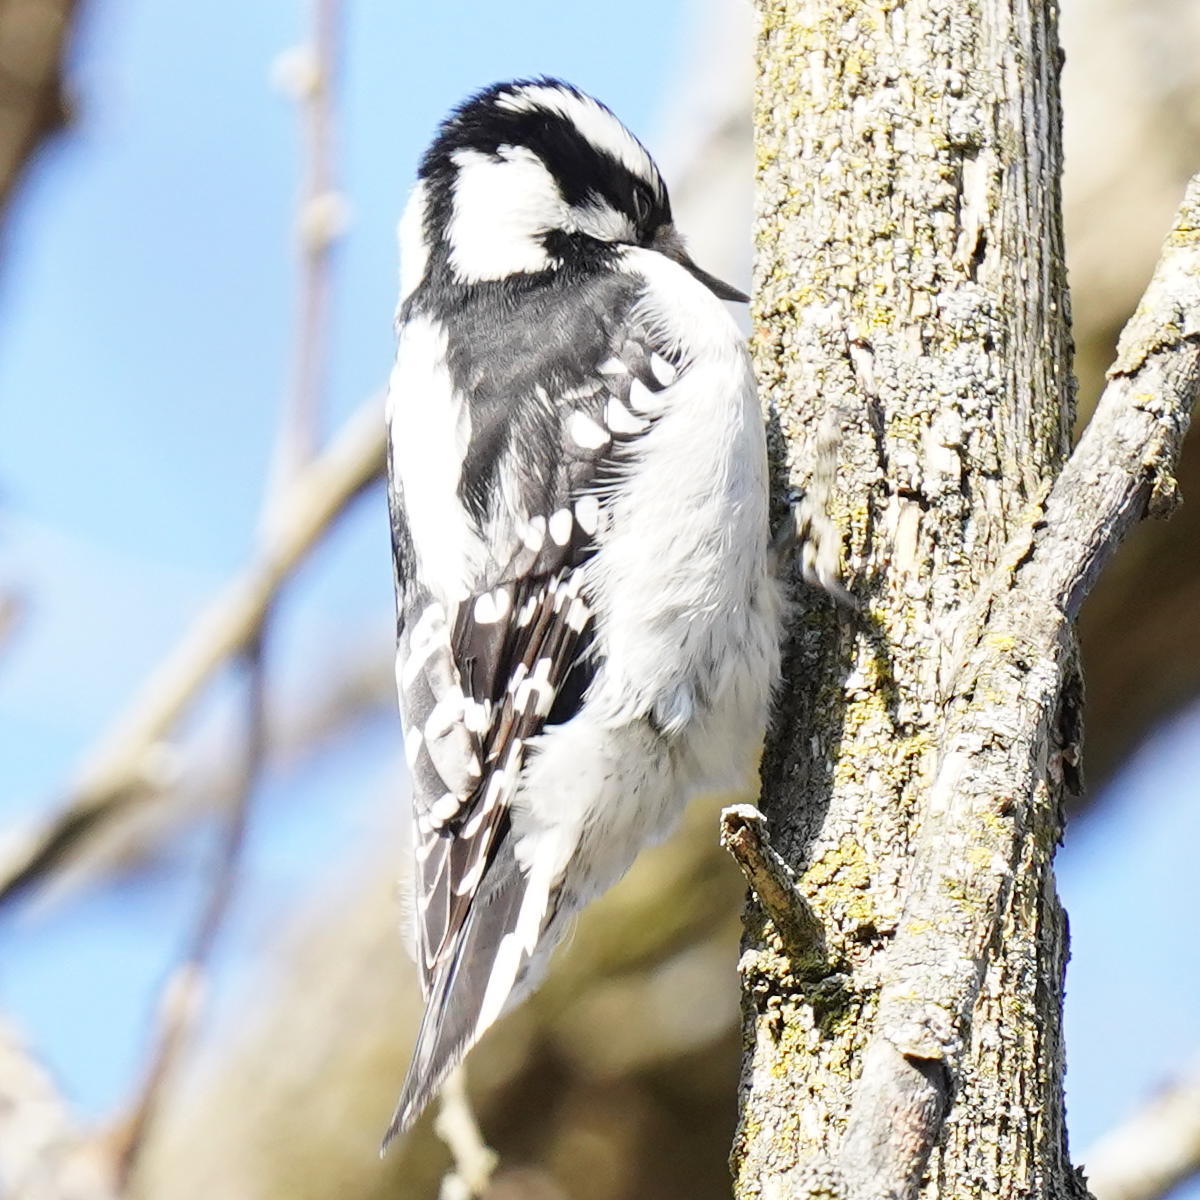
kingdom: Animalia
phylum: Chordata
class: Aves
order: Piciformes
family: Picidae
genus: Dryobates
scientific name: Dryobates pubescens
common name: Downy woodpecker
